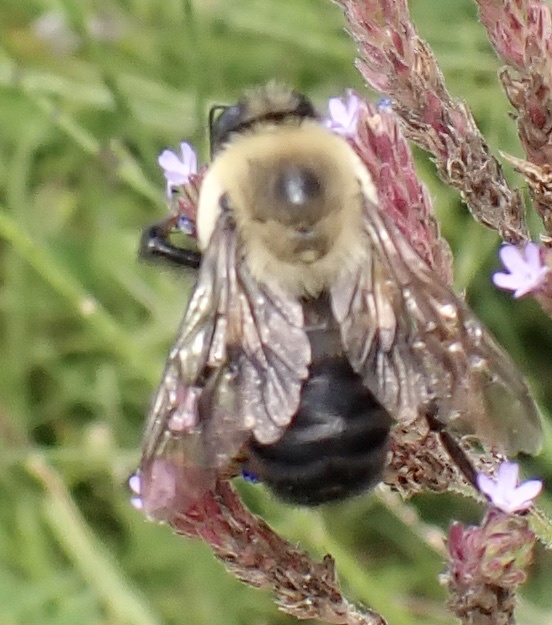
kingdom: Animalia
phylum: Arthropoda
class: Insecta
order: Hymenoptera
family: Apidae
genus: Bombus
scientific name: Bombus griseocollis
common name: Brown-belted bumble bee
